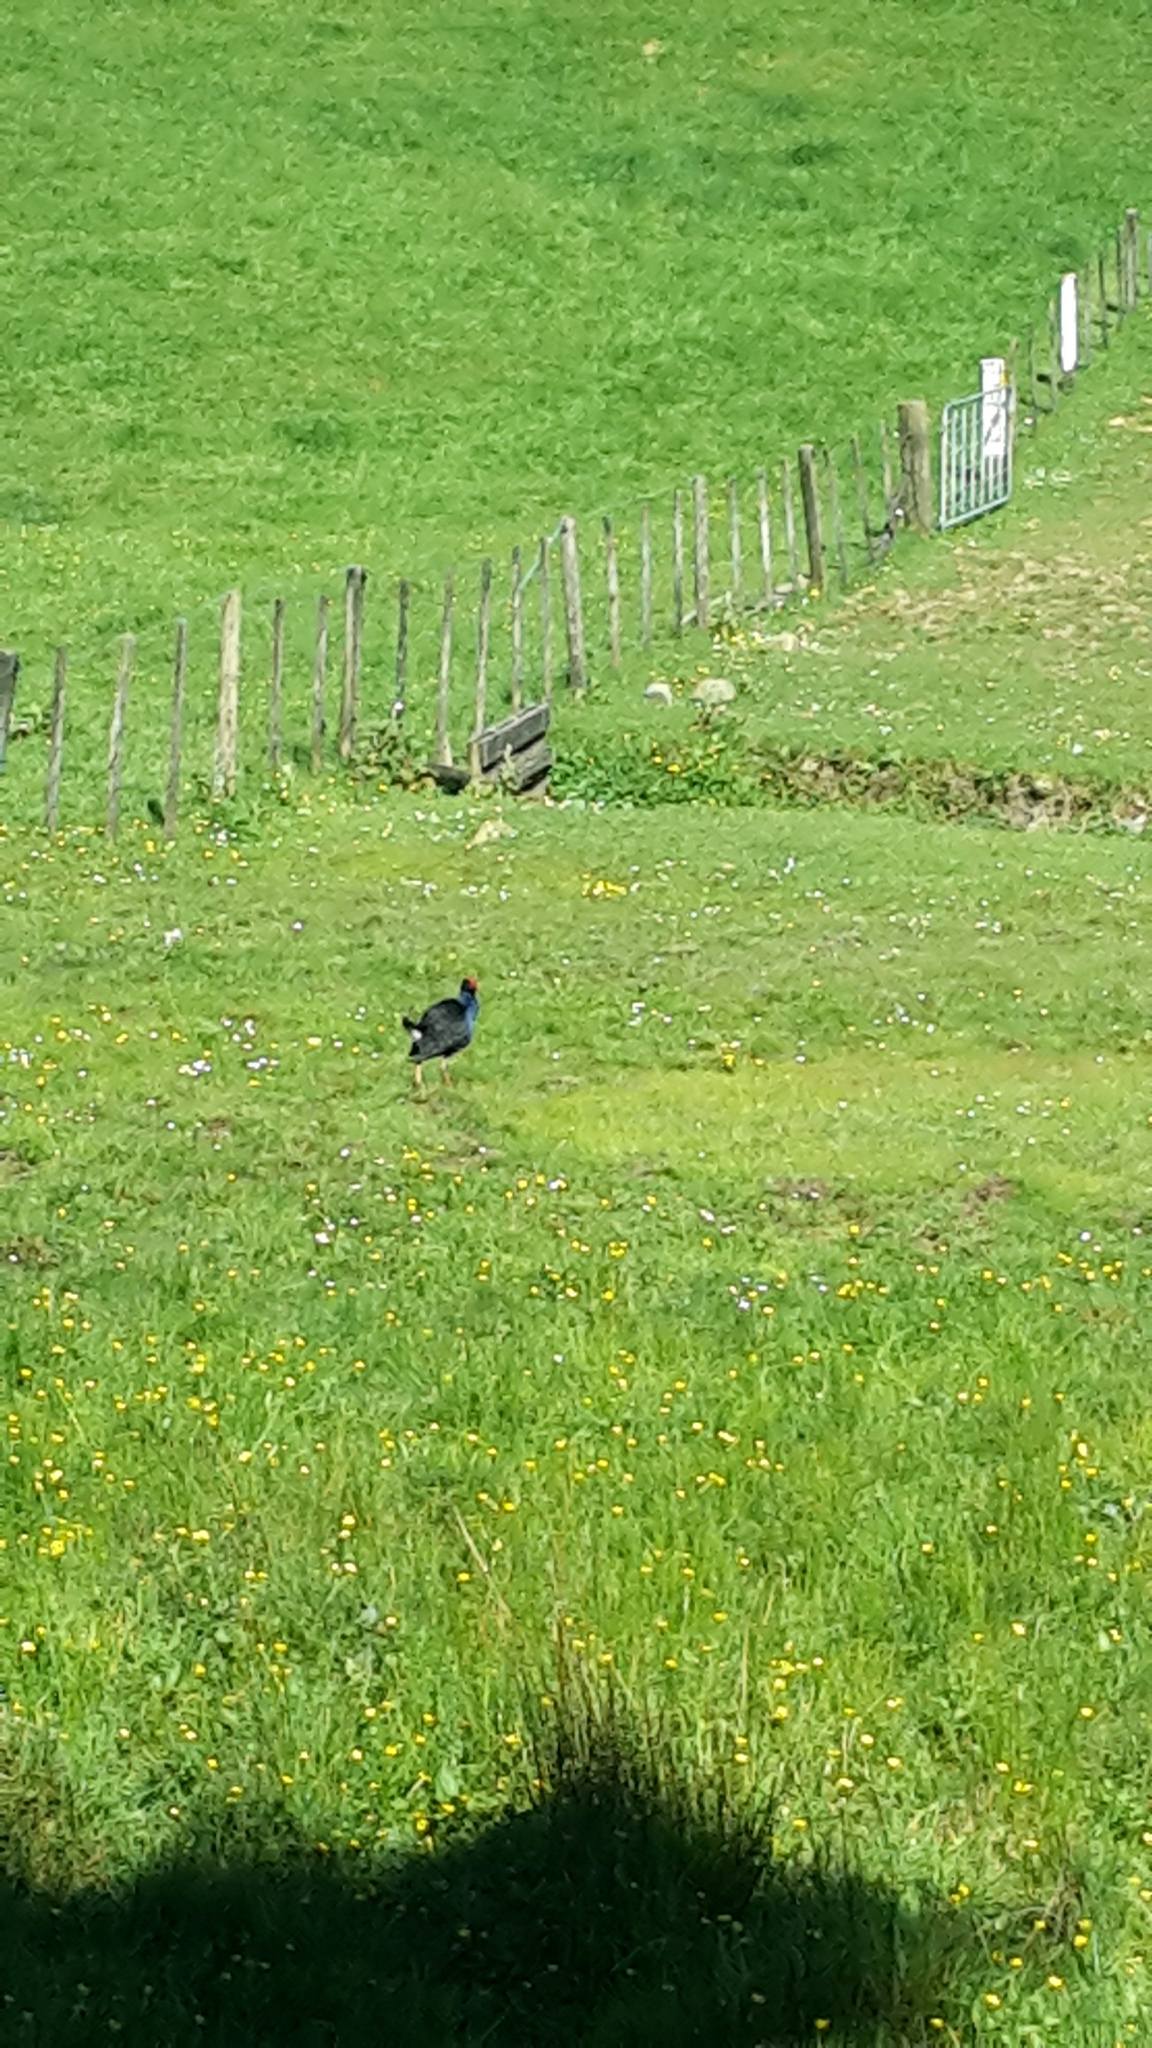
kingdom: Animalia
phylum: Chordata
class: Aves
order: Gruiformes
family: Rallidae
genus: Porphyrio
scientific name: Porphyrio melanotus
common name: Australasian swamphen
